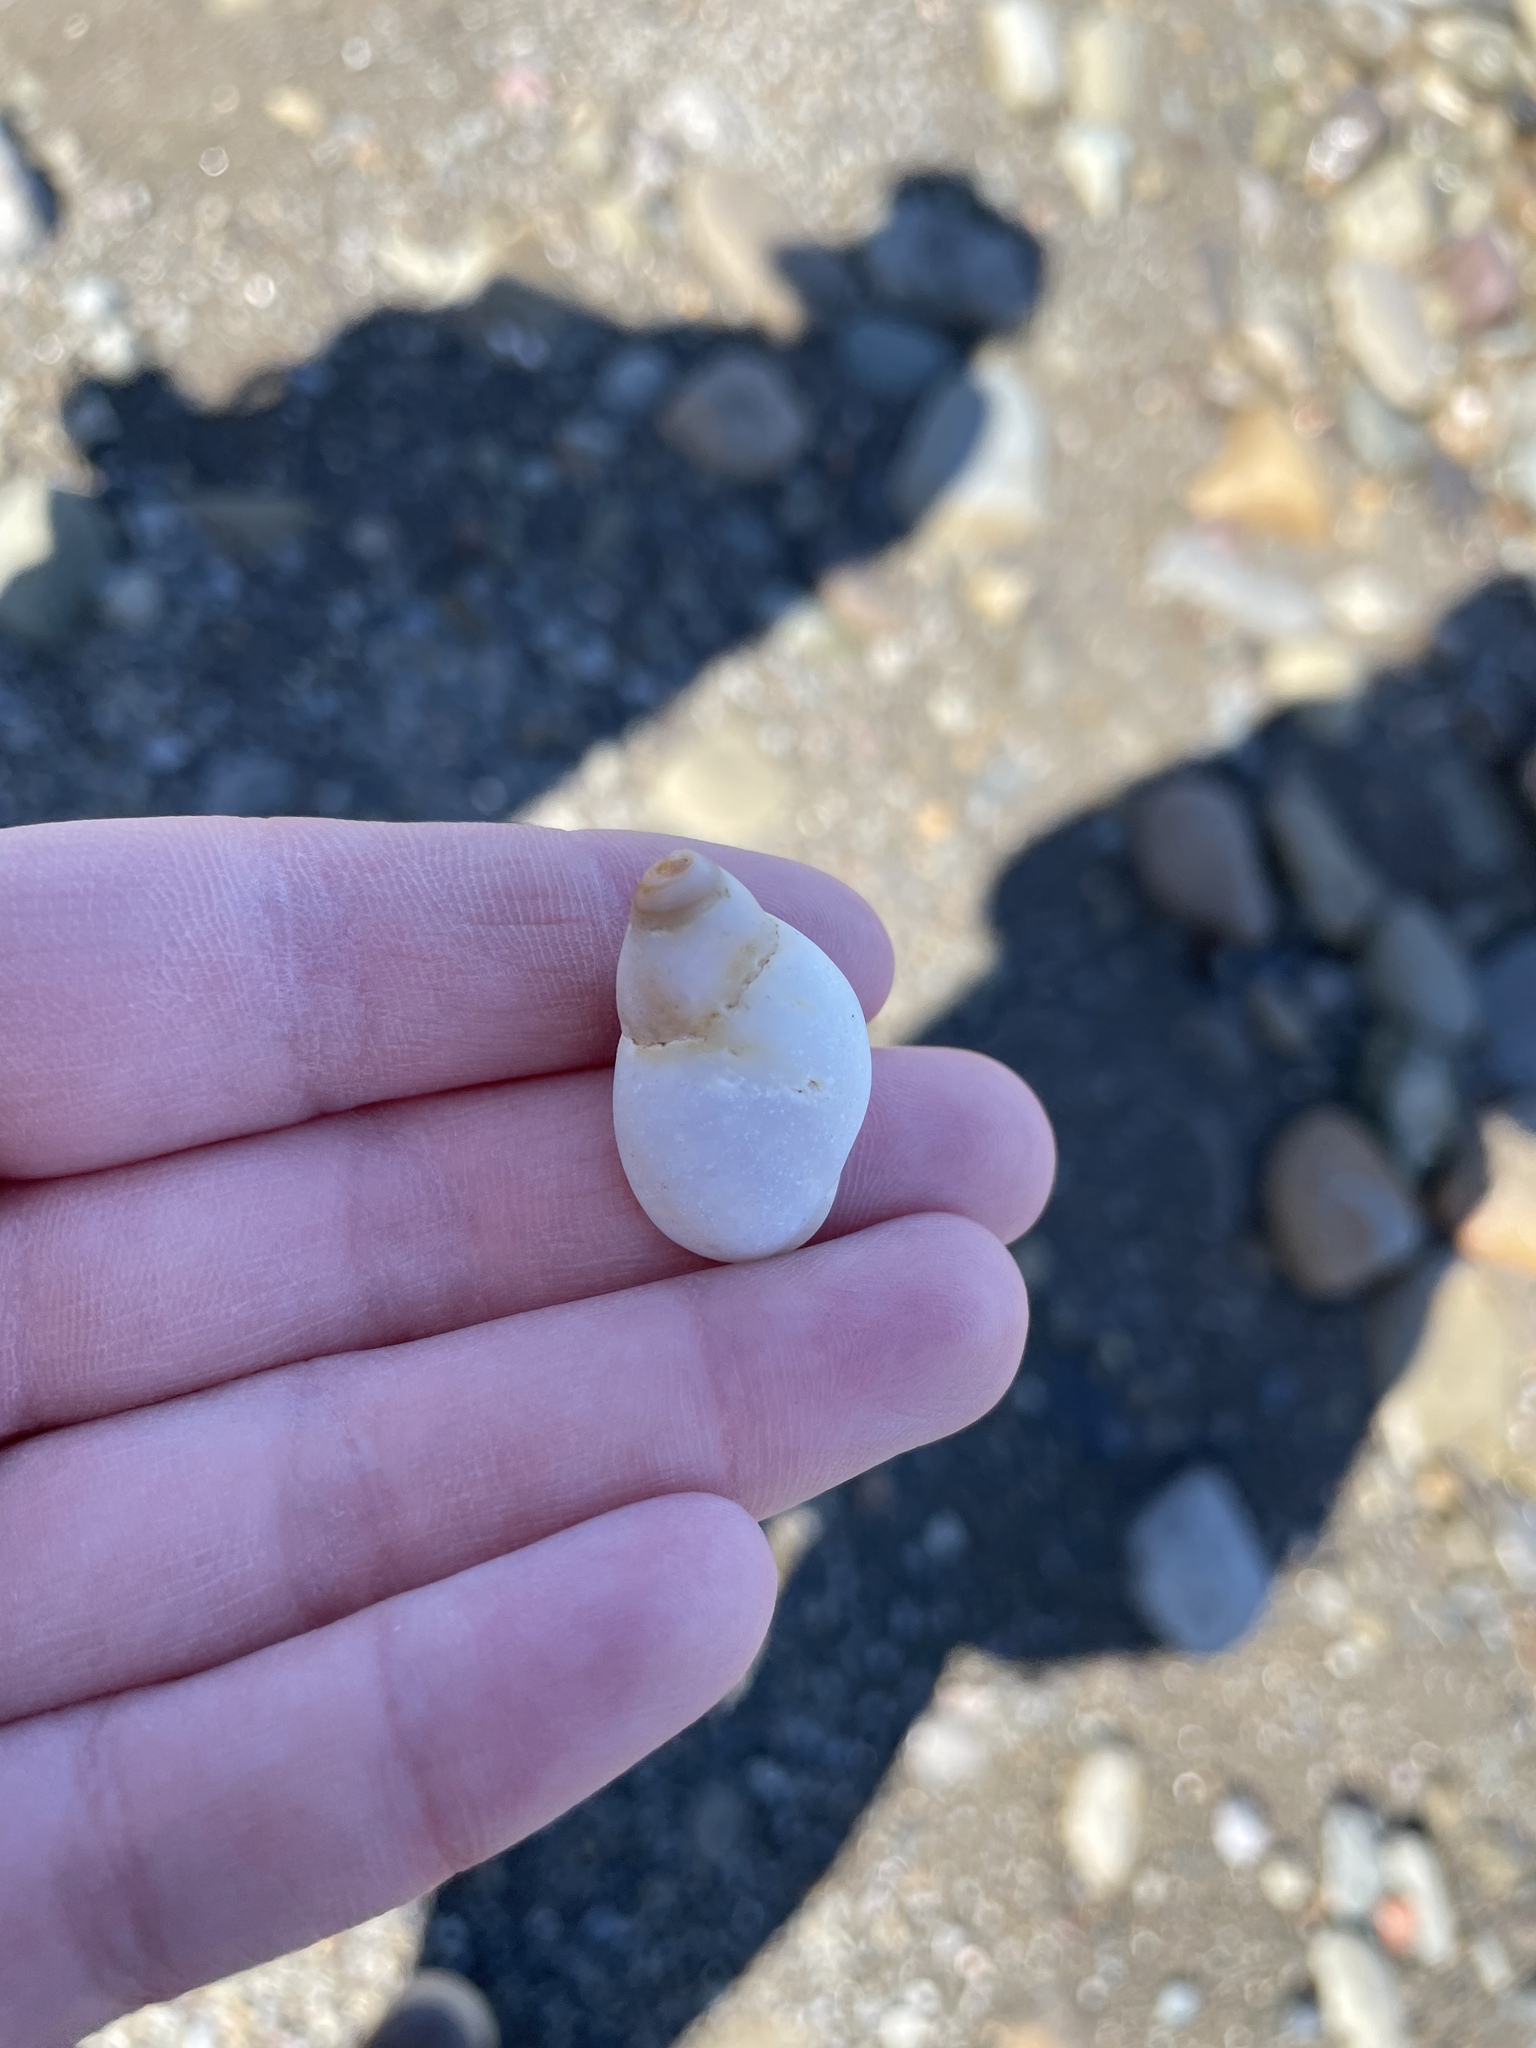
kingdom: Animalia
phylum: Mollusca
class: Gastropoda
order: Neogastropoda
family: Muricidae
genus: Nucella
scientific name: Nucella lapillus
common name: Dog whelk
